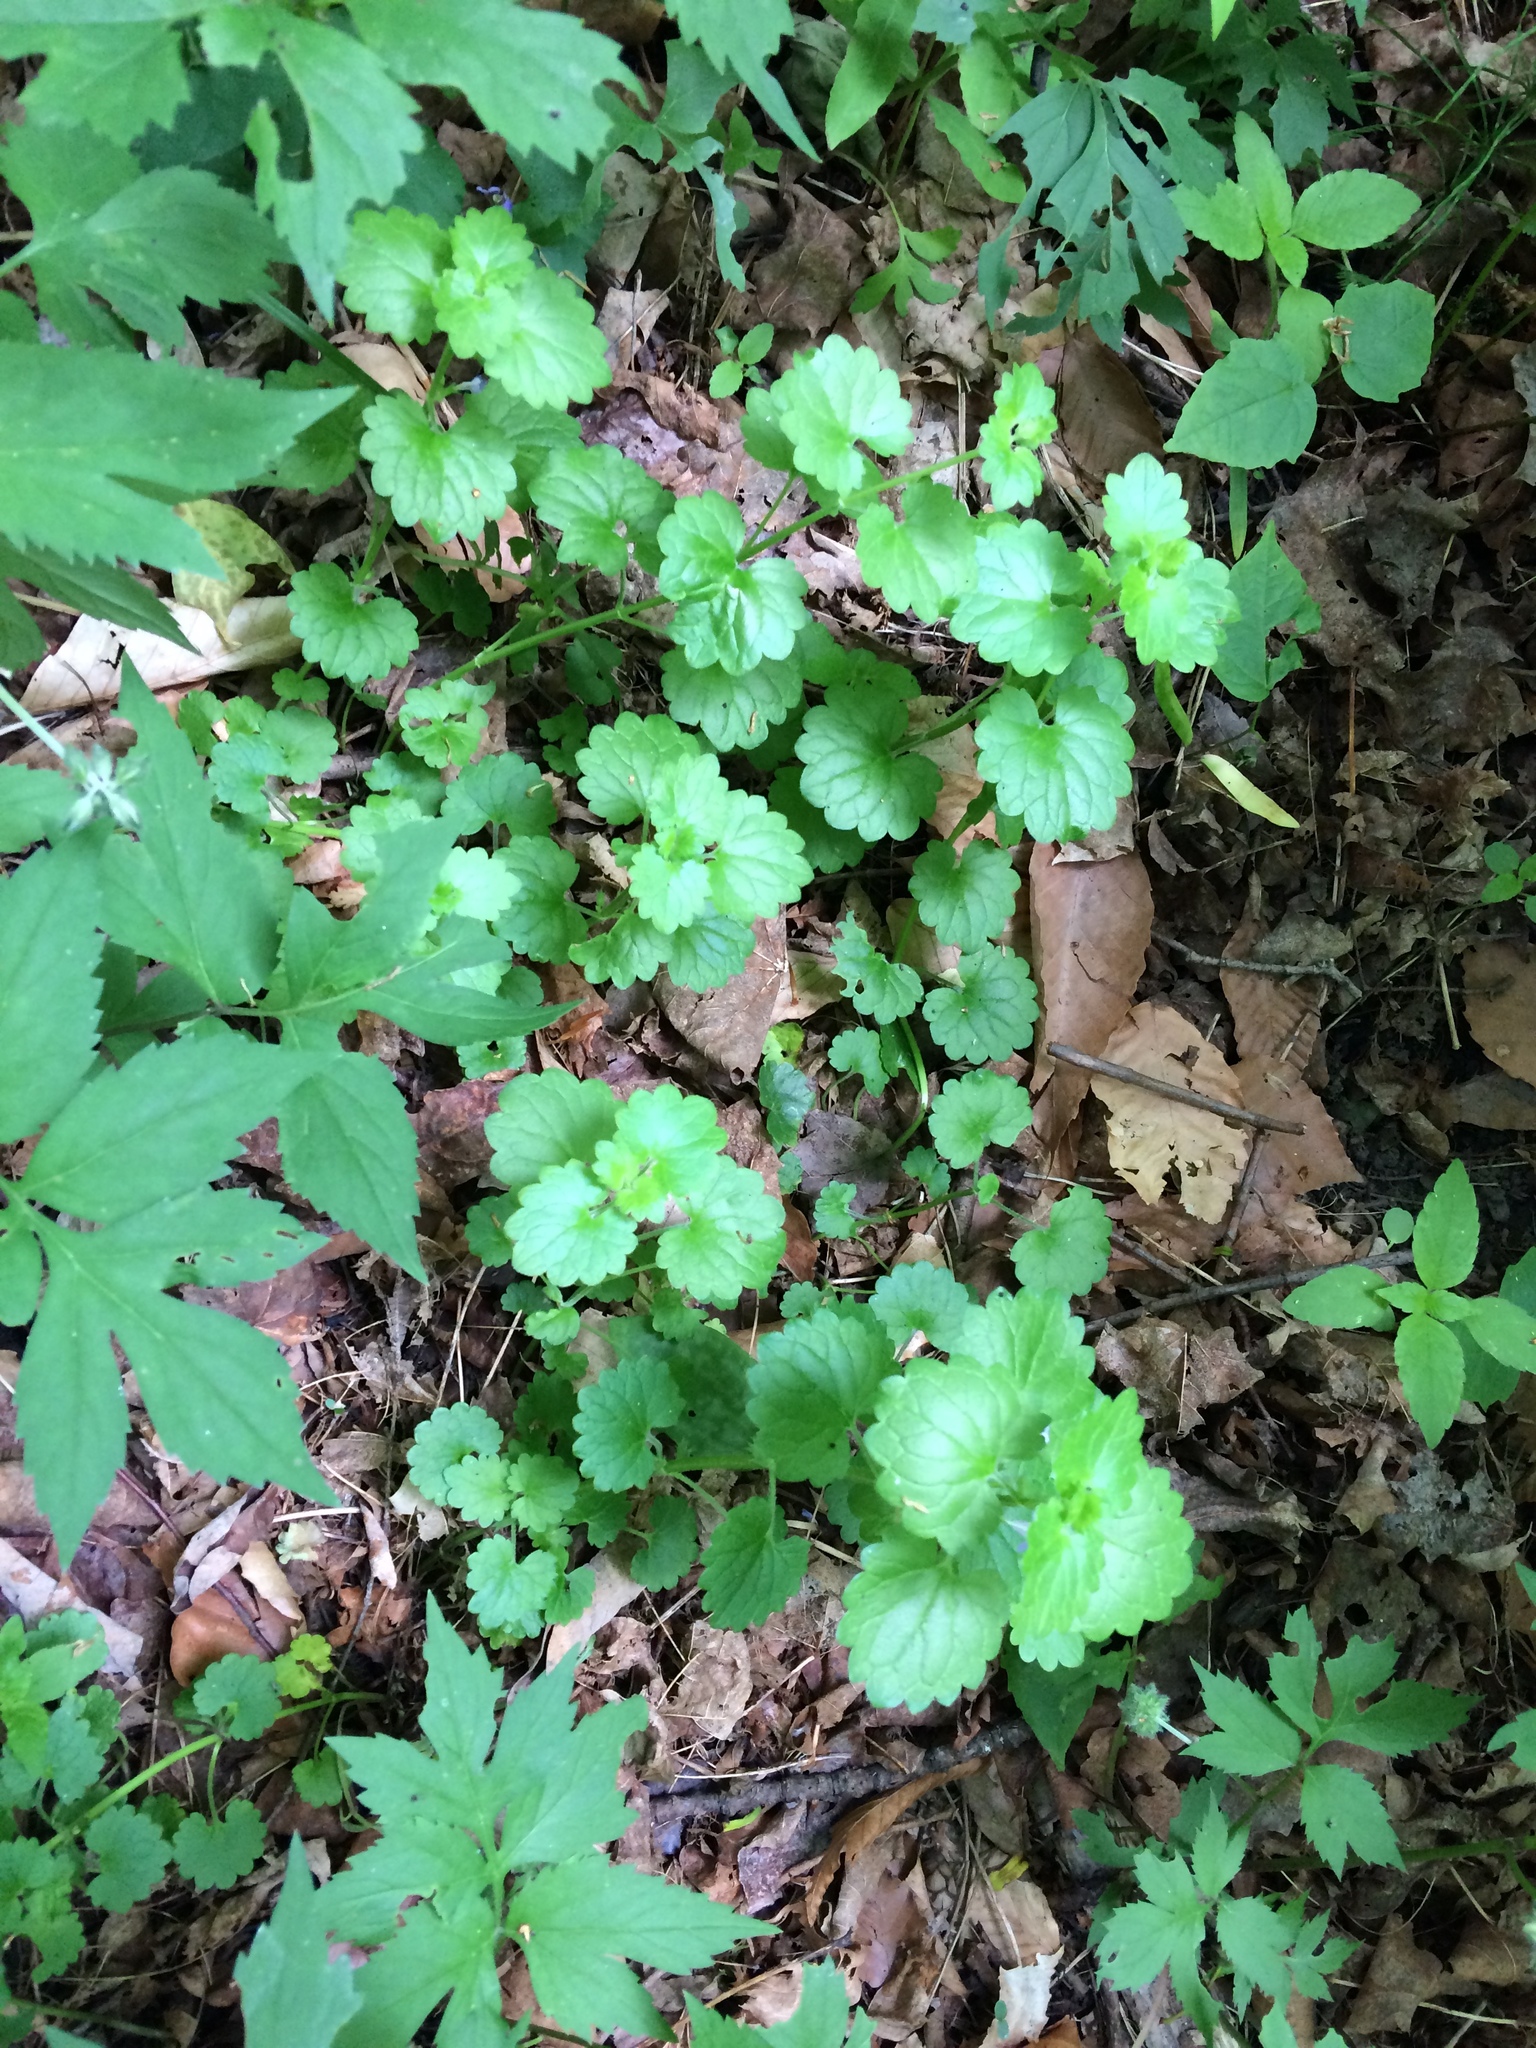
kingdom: Plantae
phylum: Tracheophyta
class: Magnoliopsida
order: Lamiales
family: Lamiaceae
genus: Glechoma
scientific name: Glechoma hederacea
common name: Ground ivy
